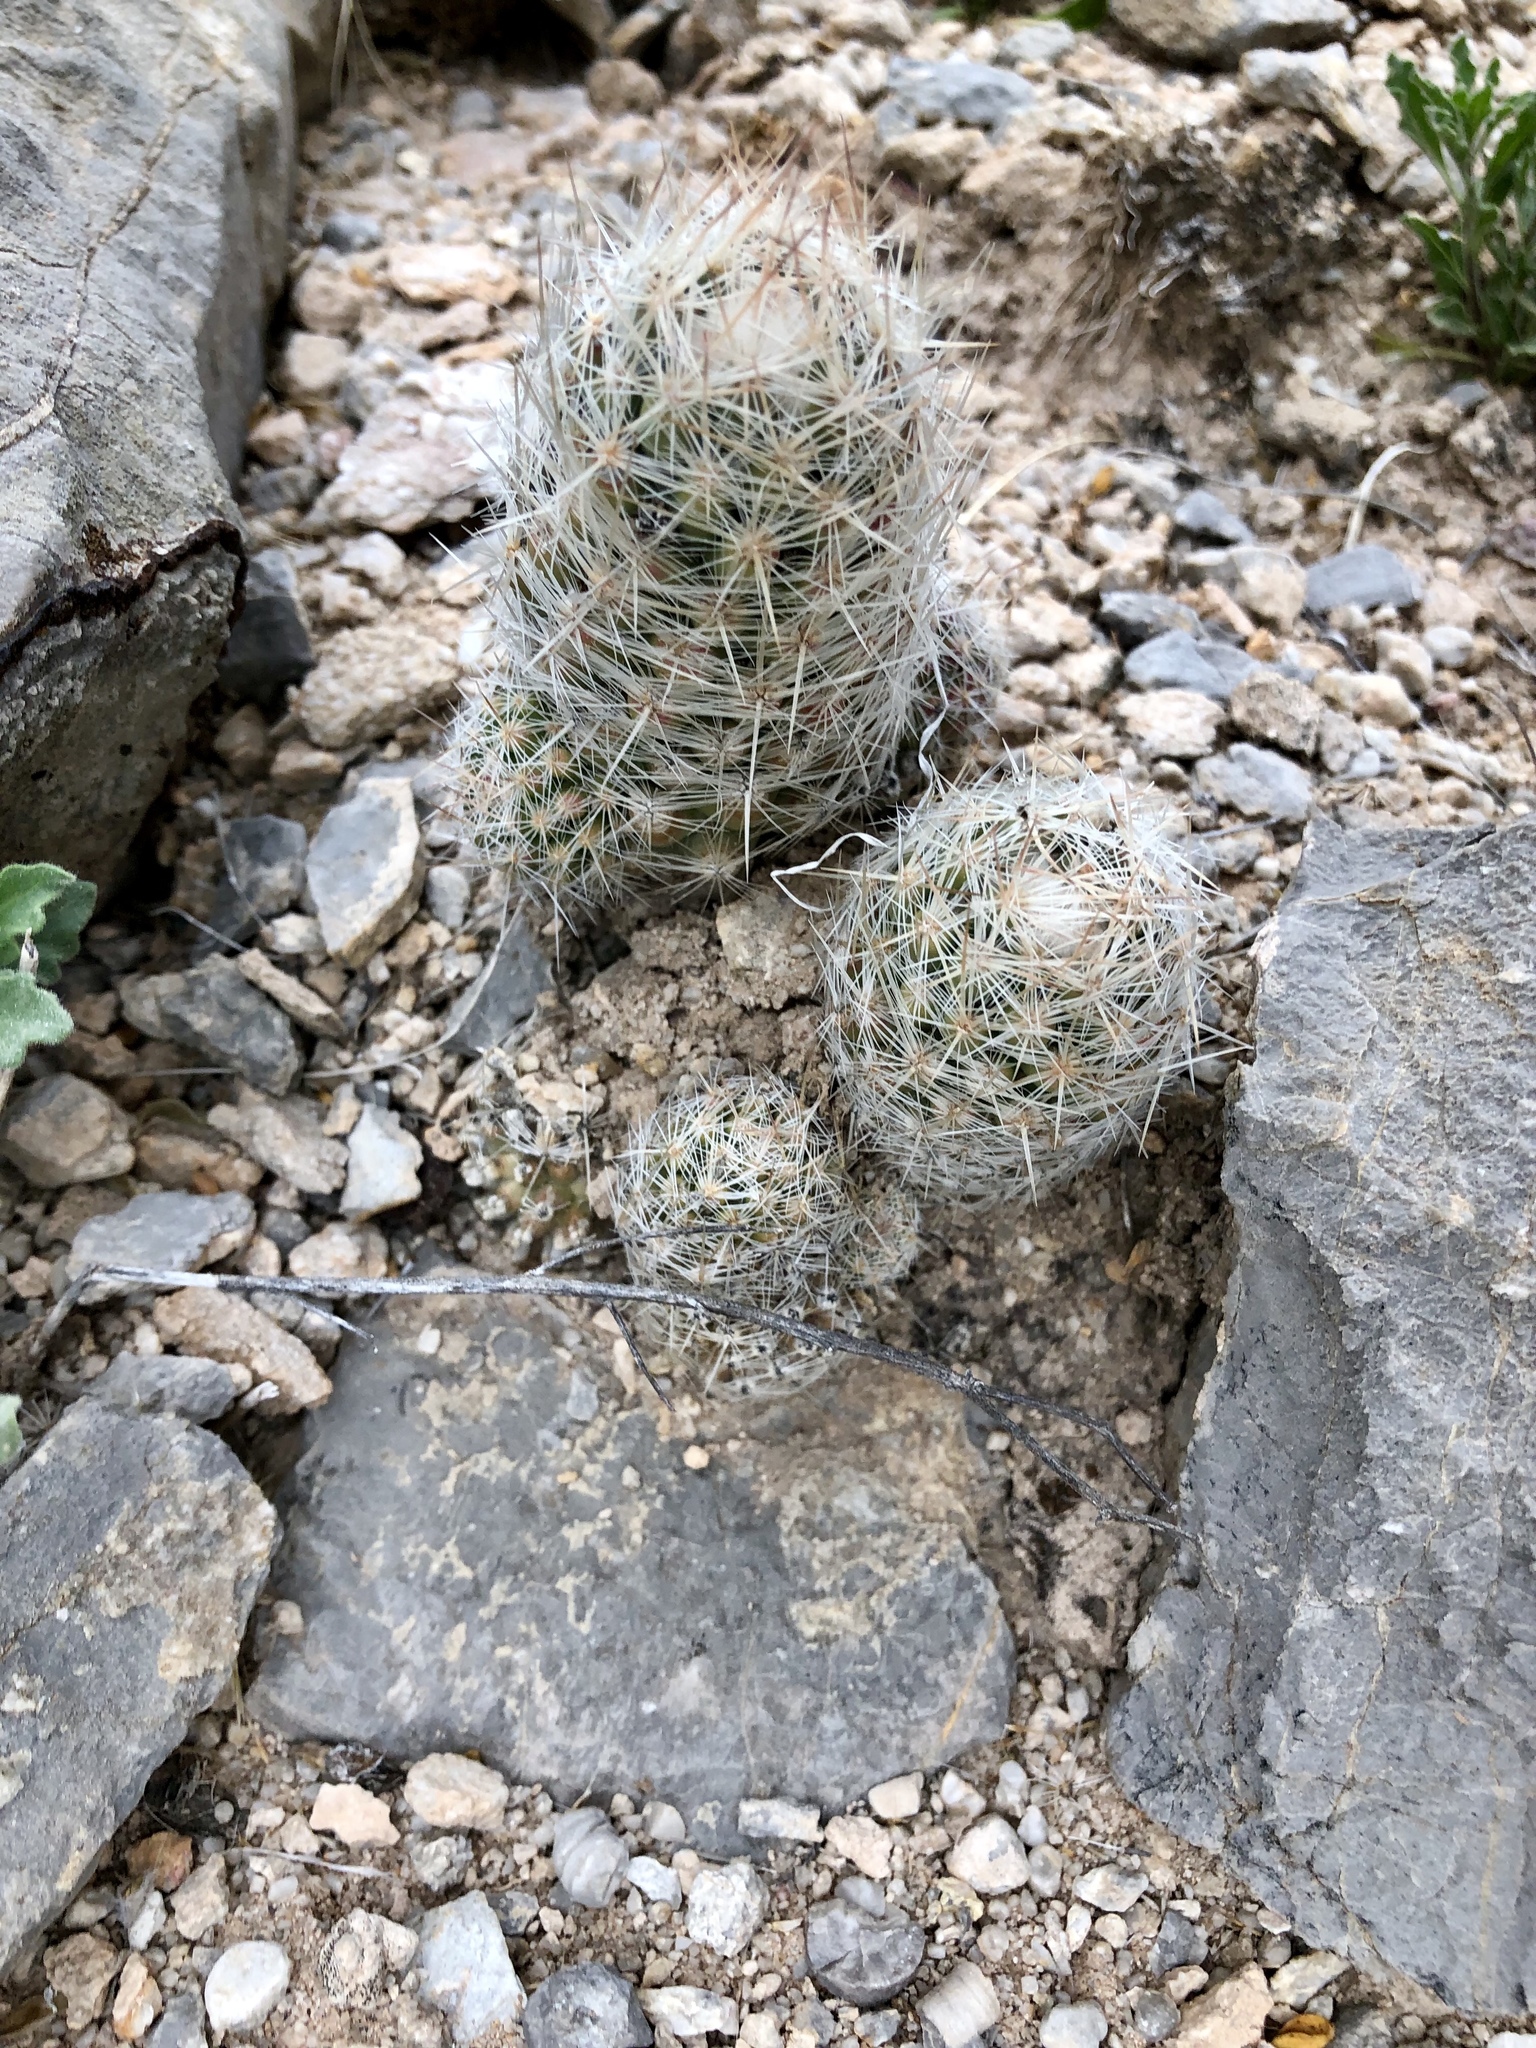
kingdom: Plantae
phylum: Tracheophyta
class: Magnoliopsida
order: Caryophyllales
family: Cactaceae
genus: Pelecyphora
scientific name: Pelecyphora tuberculosa
